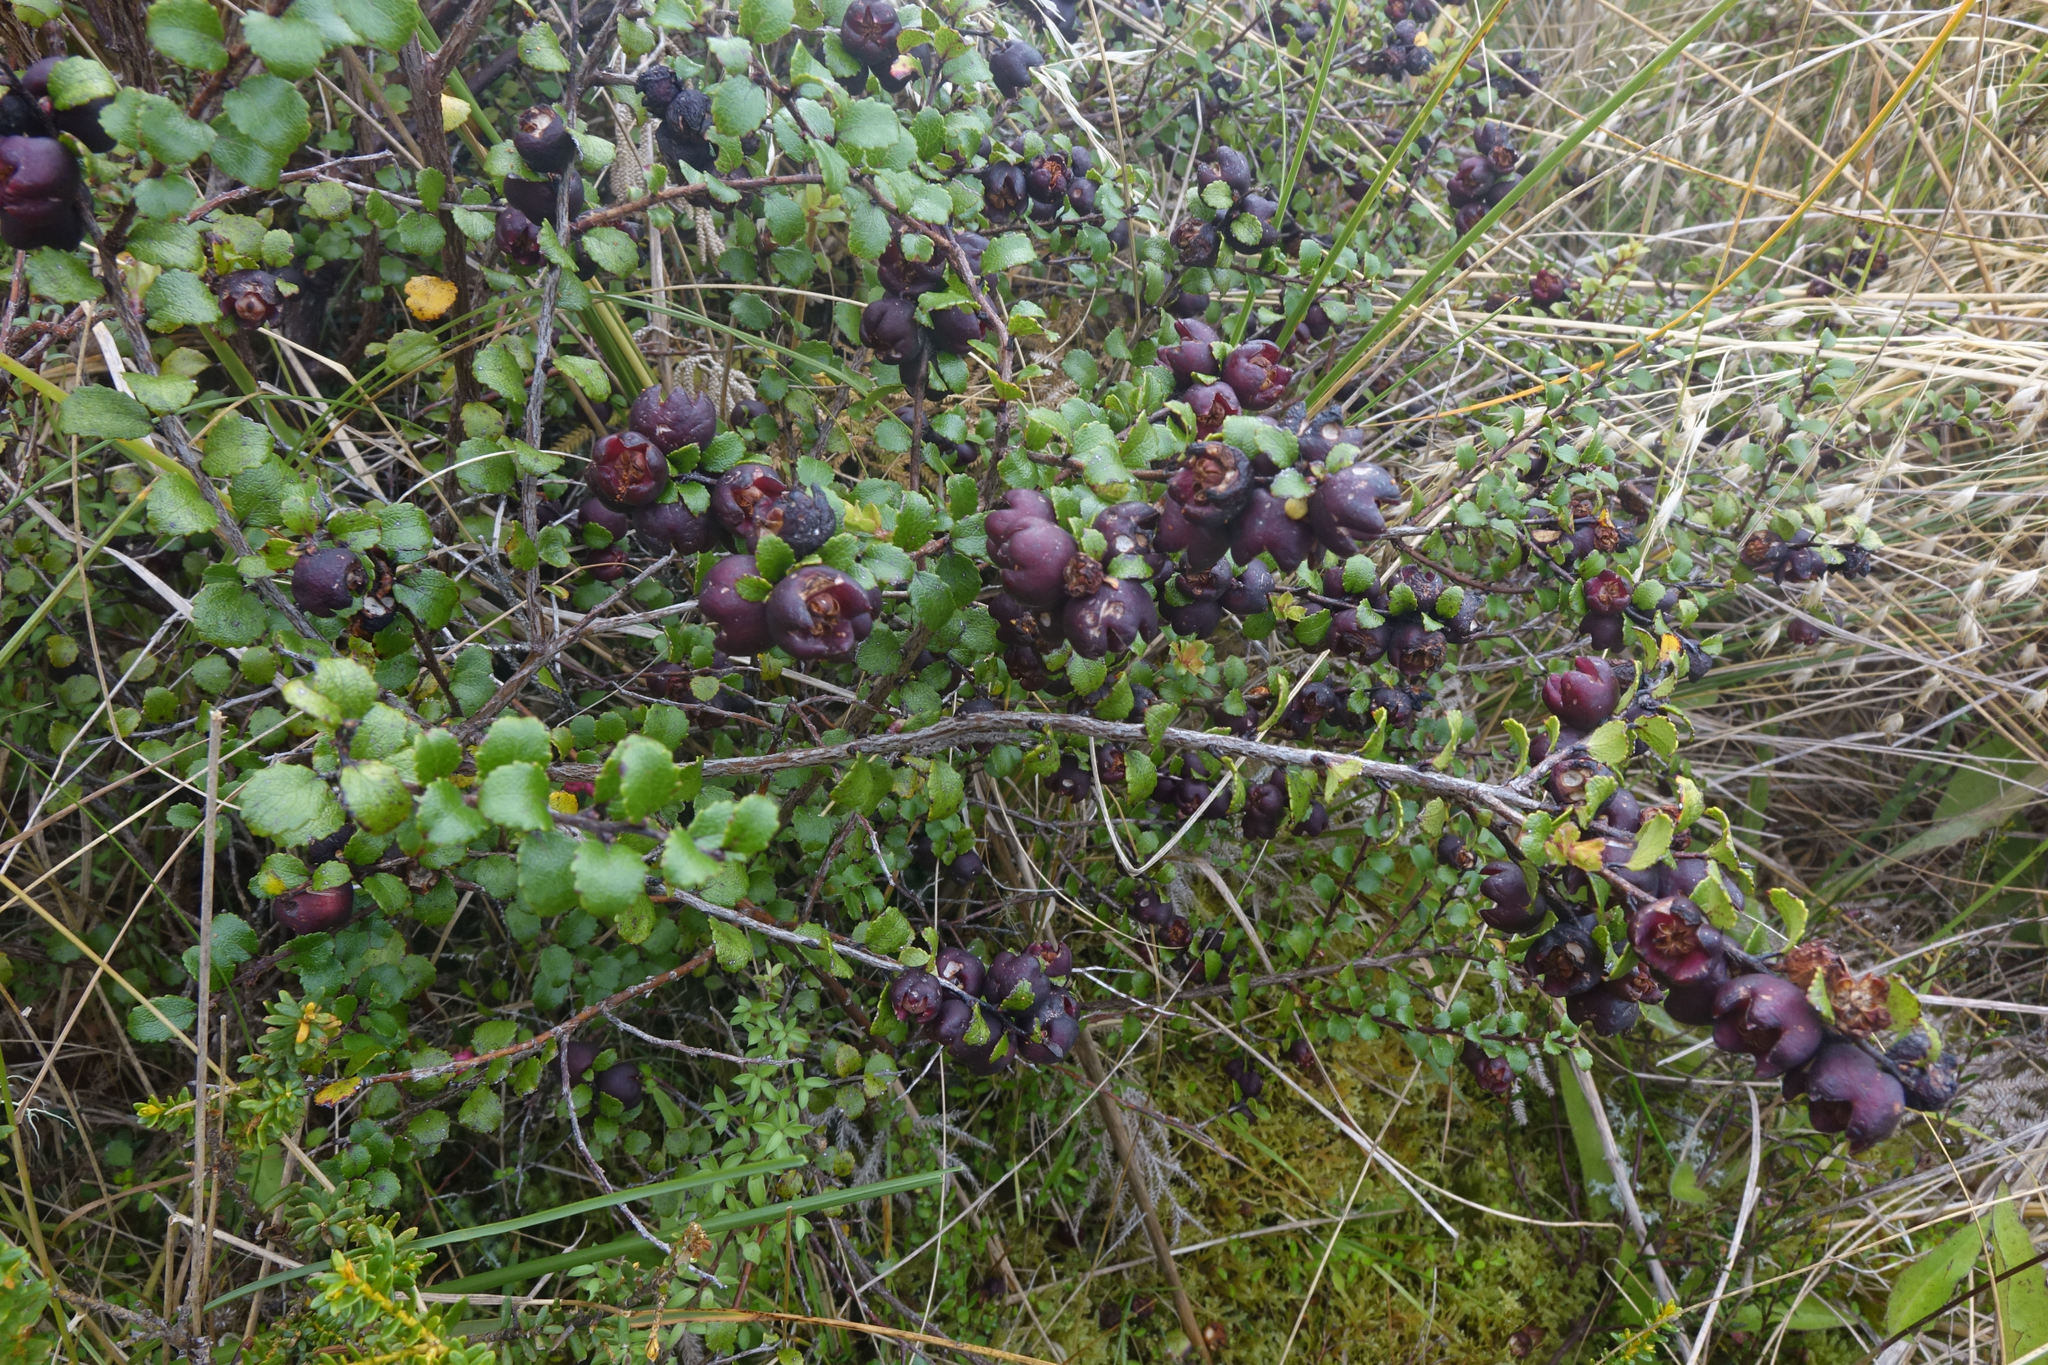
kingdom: Plantae
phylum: Tracheophyta
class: Magnoliopsida
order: Ericales
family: Ericaceae
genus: Gaultheria
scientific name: Gaultheria antipoda
